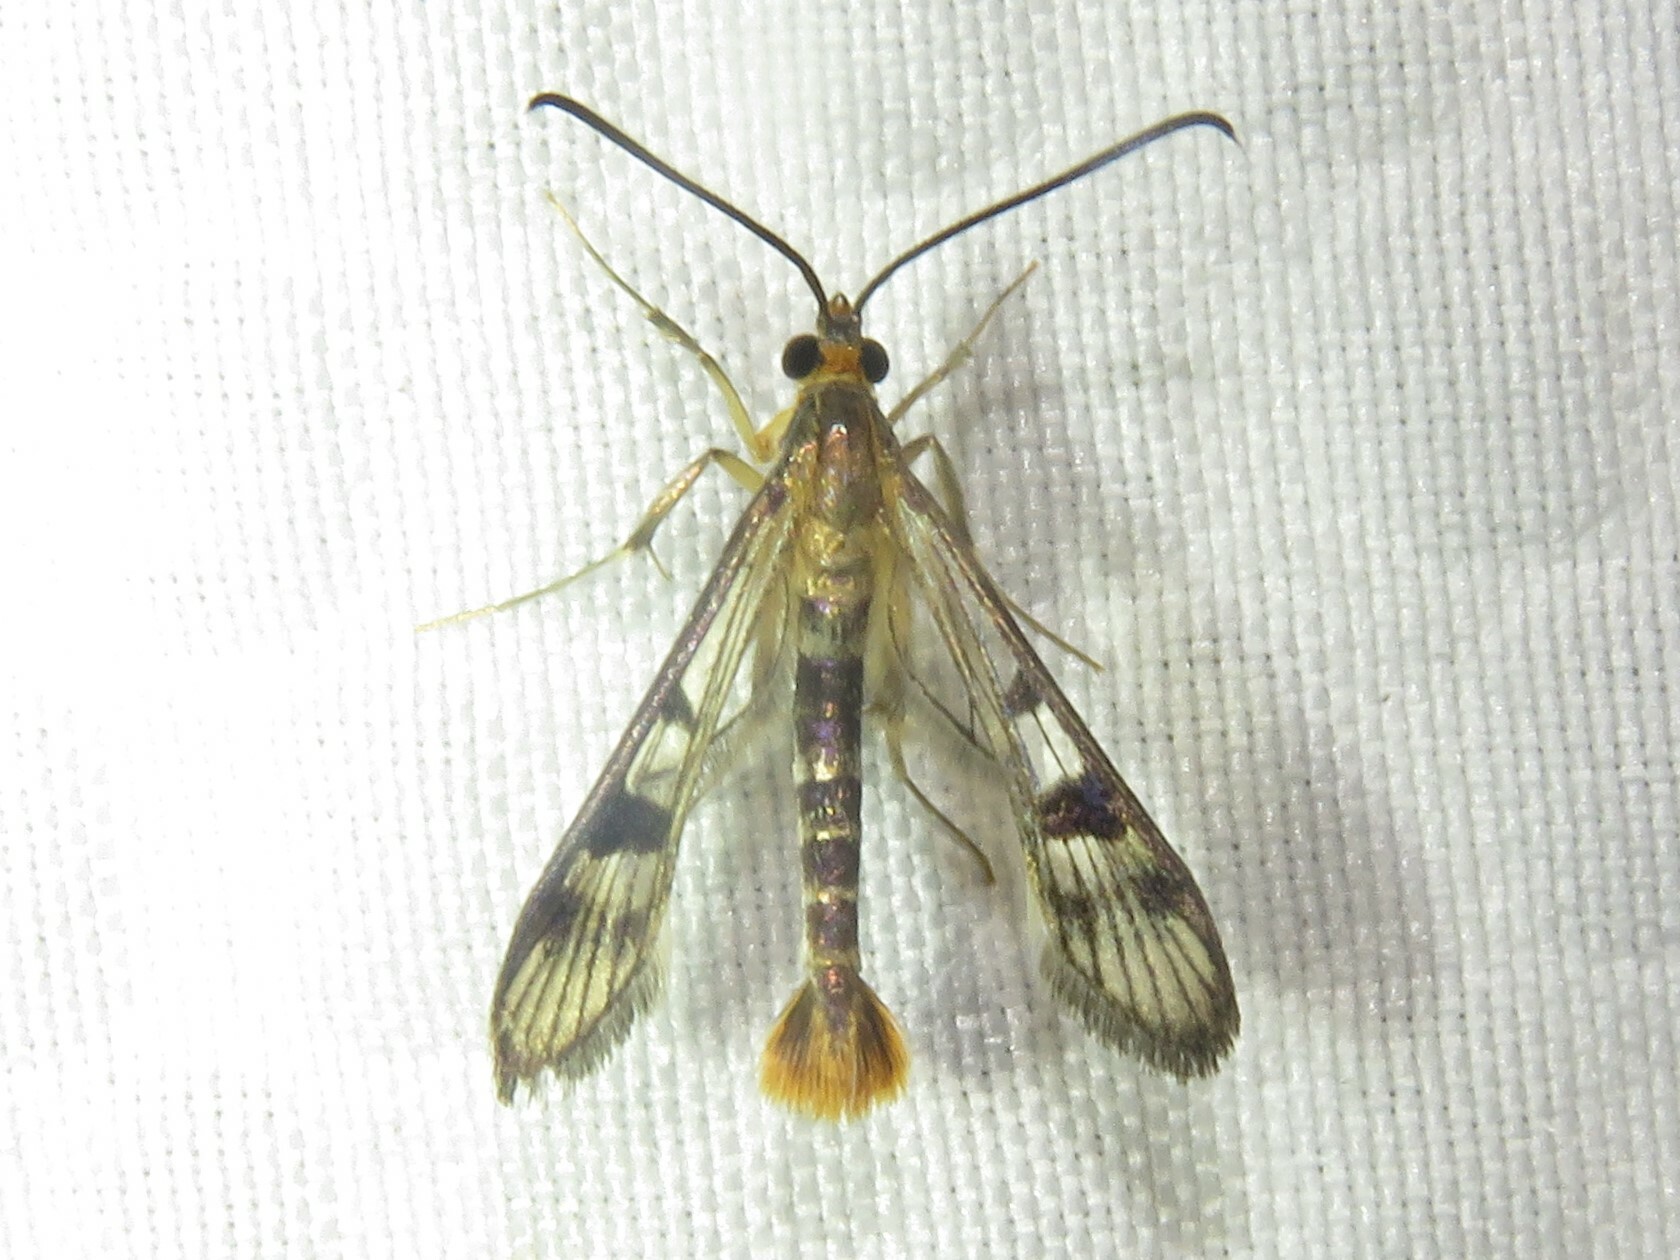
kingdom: Animalia
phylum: Arthropoda
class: Insecta
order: Lepidoptera
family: Sesiidae
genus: Synanthedon
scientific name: Synanthedon acerni
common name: Maple callus borer moth
